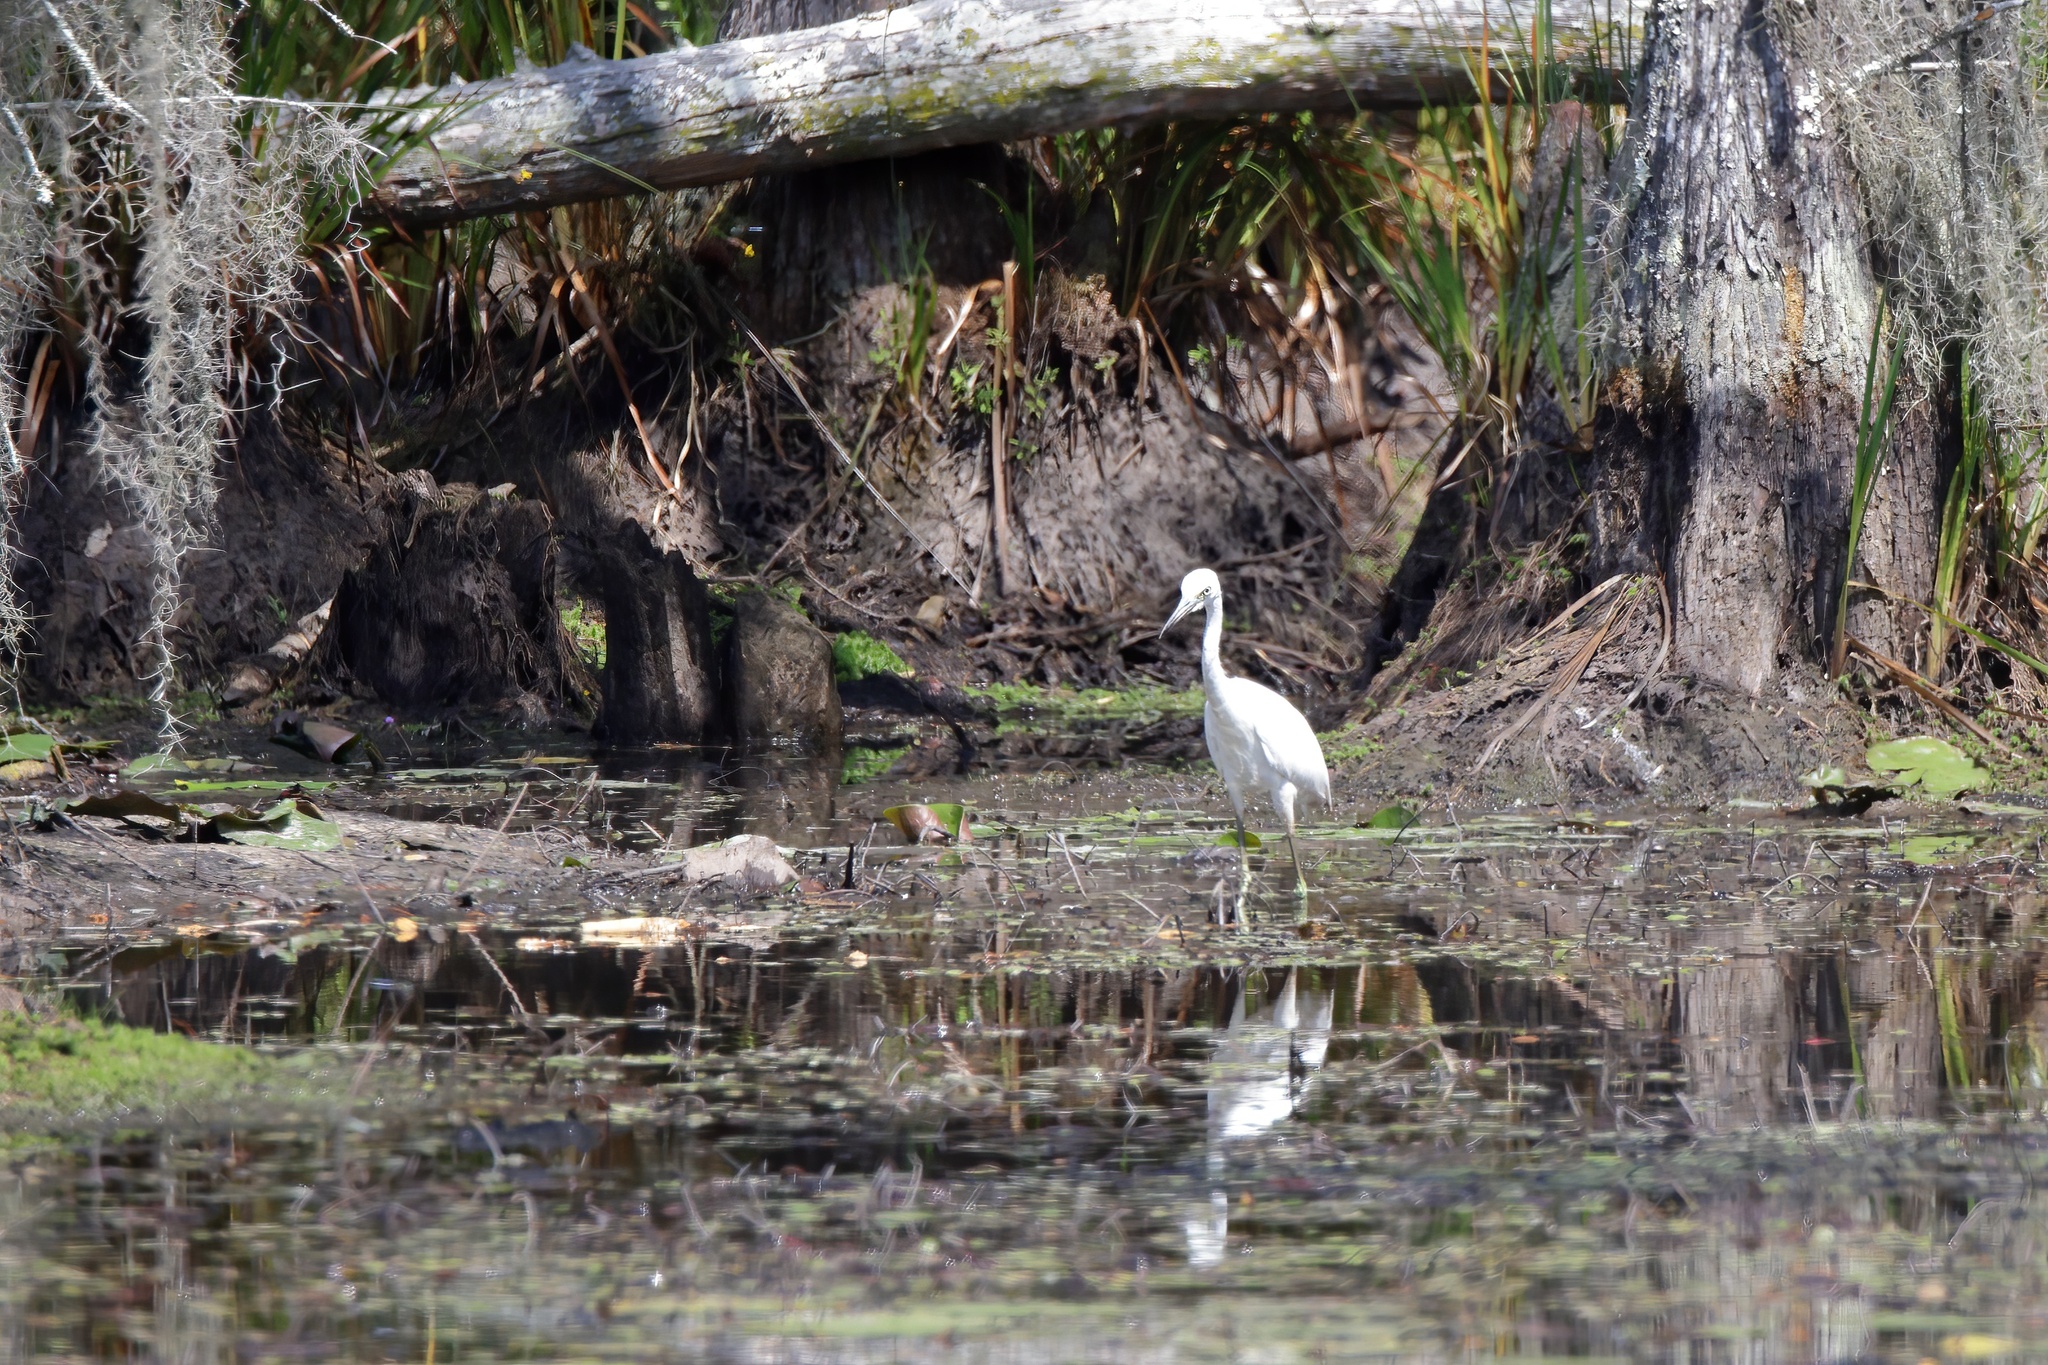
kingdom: Animalia
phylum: Chordata
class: Aves
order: Pelecaniformes
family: Ardeidae
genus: Egretta
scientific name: Egretta caerulea
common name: Little blue heron
